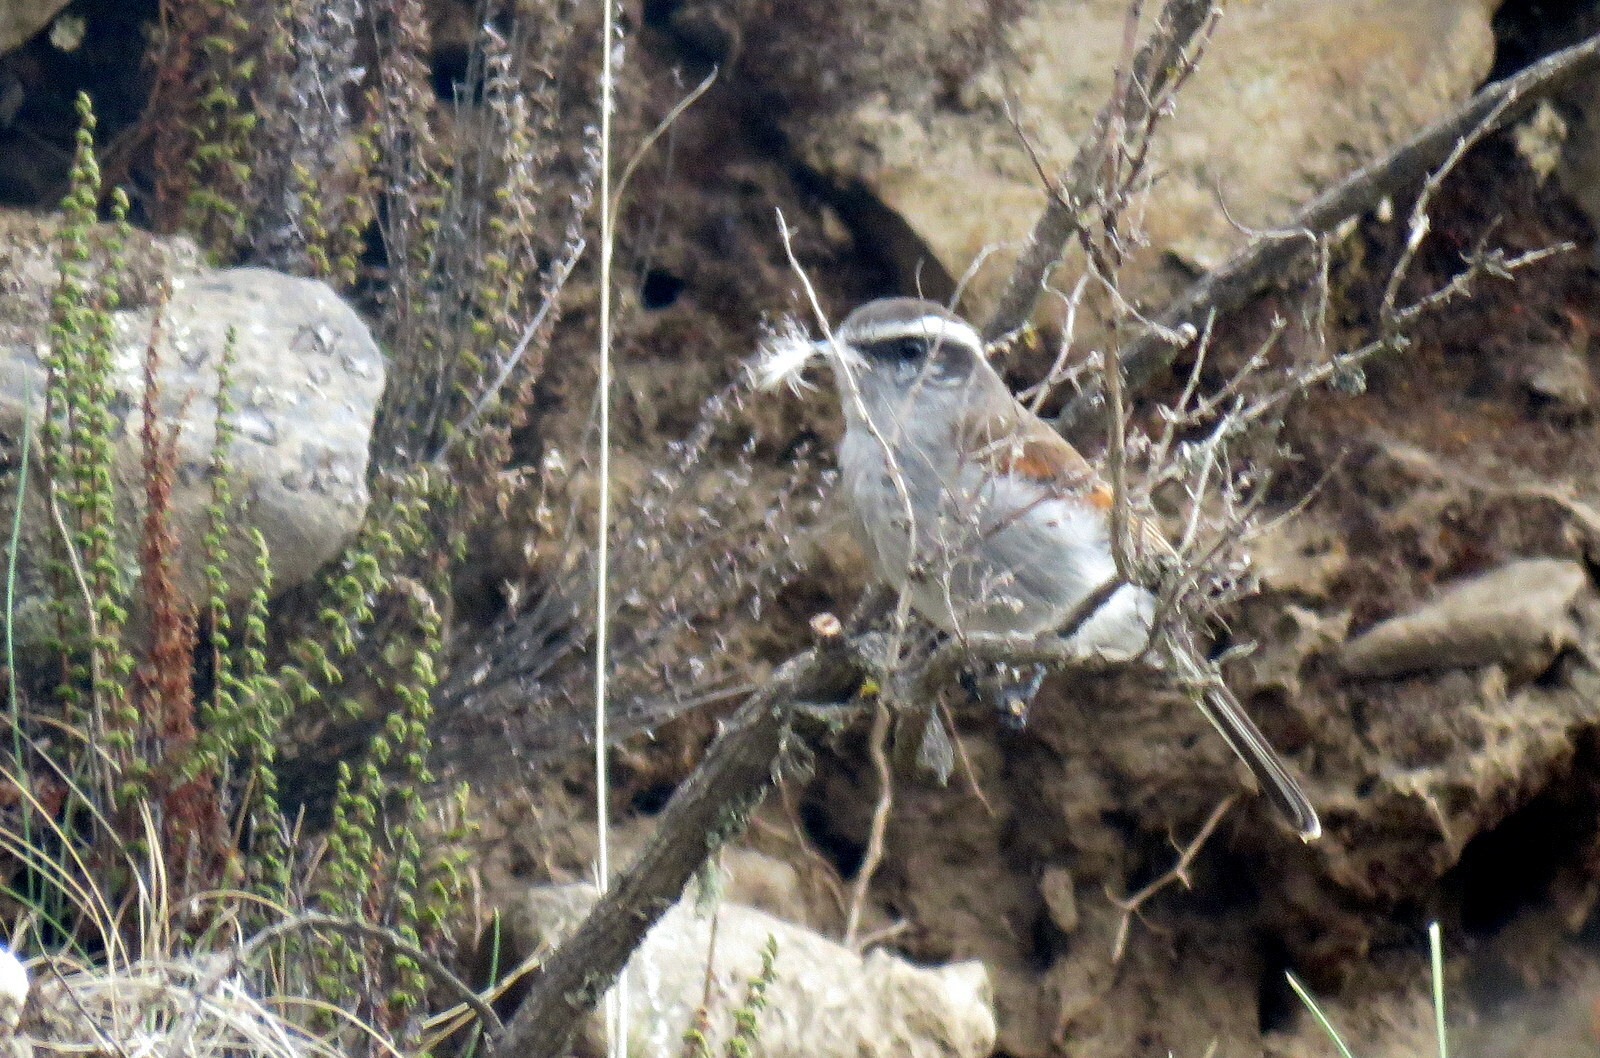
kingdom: Animalia
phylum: Chordata
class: Aves
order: Passeriformes
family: Tyrannidae
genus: Ochthoeca
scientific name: Ochthoeca leucophrys
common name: White-browed chat-tyrant
